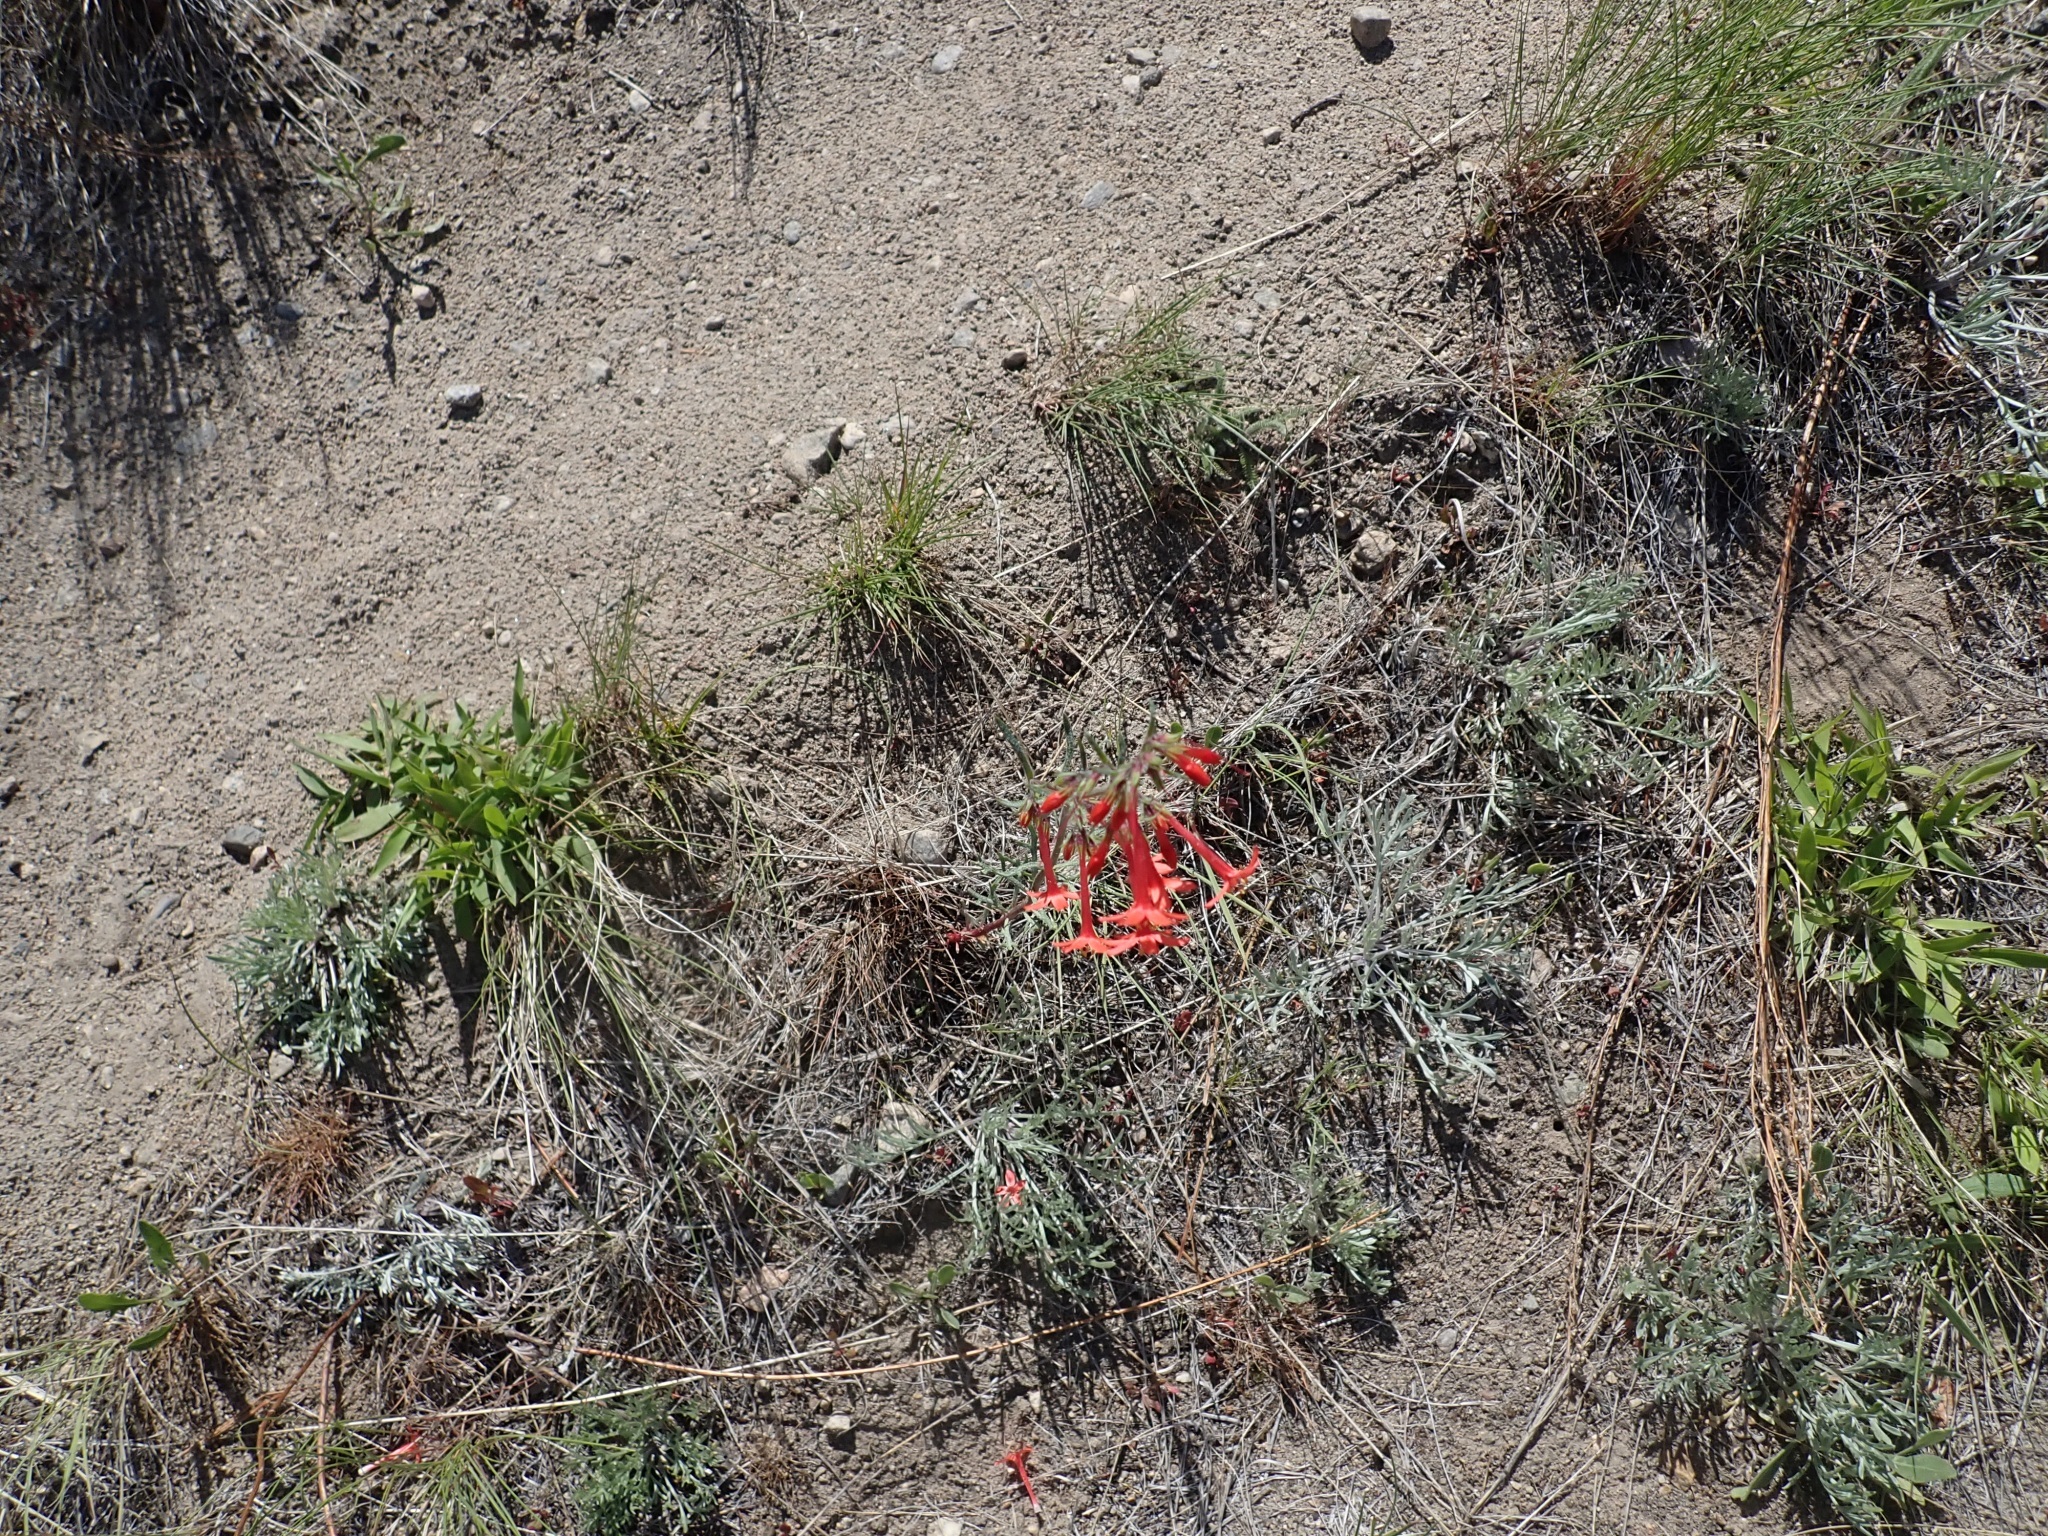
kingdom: Plantae
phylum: Tracheophyta
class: Magnoliopsida
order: Ericales
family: Polemoniaceae
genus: Ipomopsis
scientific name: Ipomopsis aggregata
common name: Scarlet gilia
